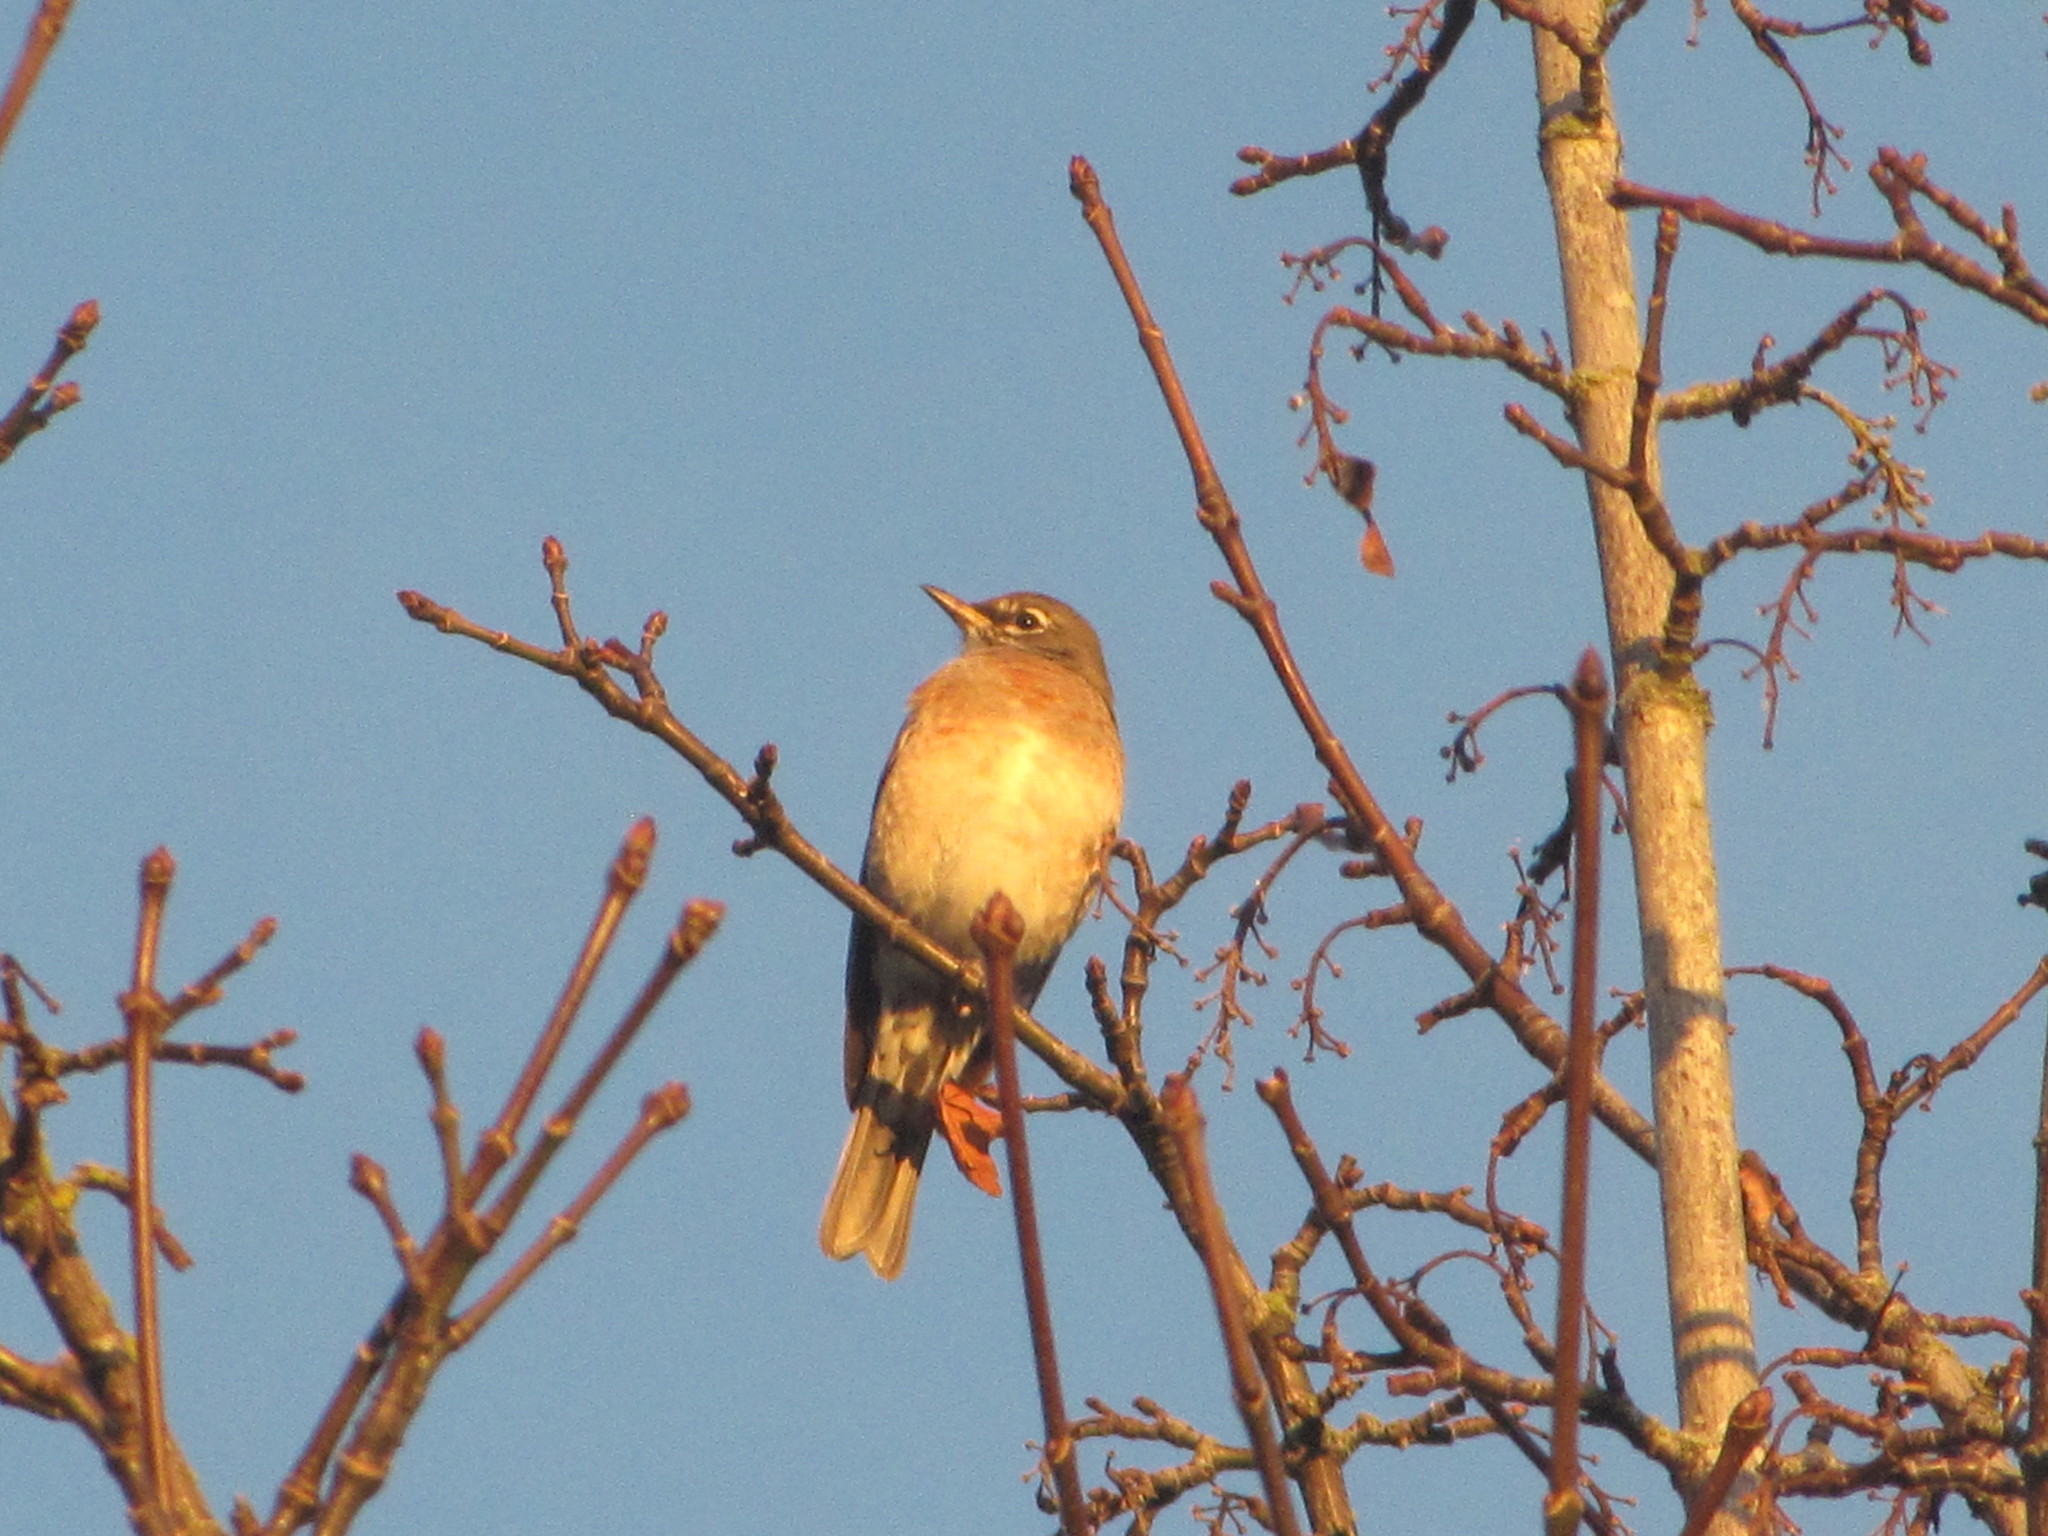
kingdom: Animalia
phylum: Chordata
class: Aves
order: Passeriformes
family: Turdidae
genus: Turdus
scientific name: Turdus migratorius
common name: American robin
